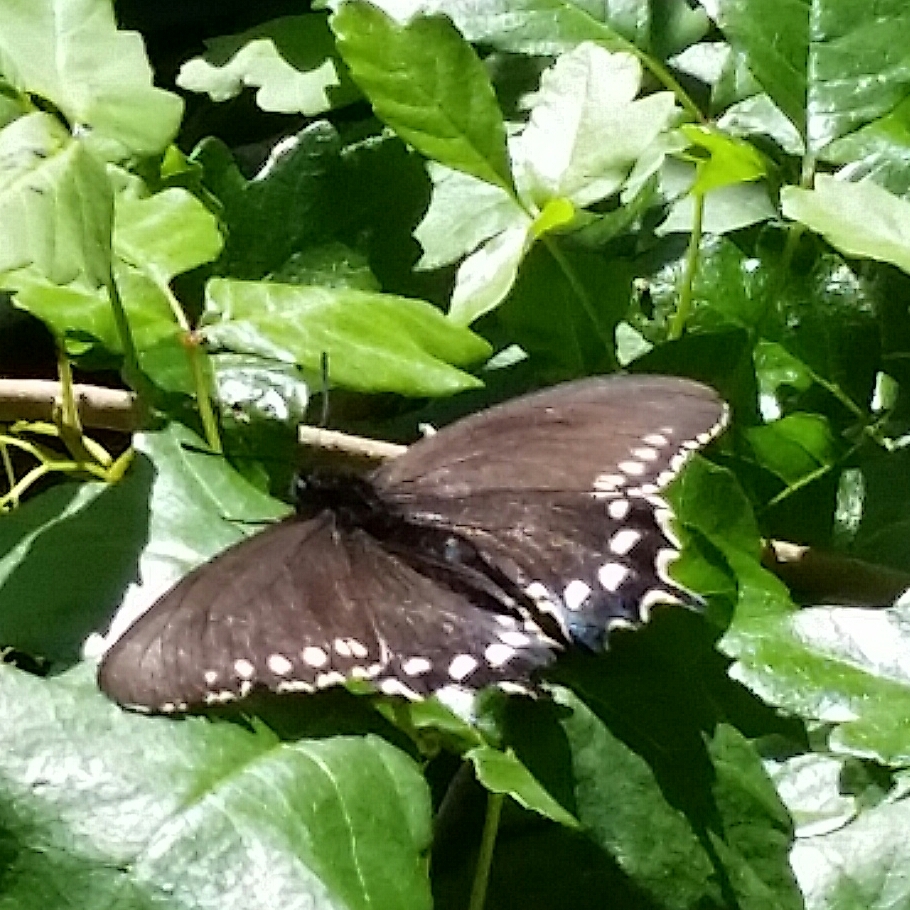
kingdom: Animalia
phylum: Arthropoda
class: Insecta
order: Lepidoptera
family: Papilionidae
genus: Battus
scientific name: Battus philenor
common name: Pipevine swallowtail
